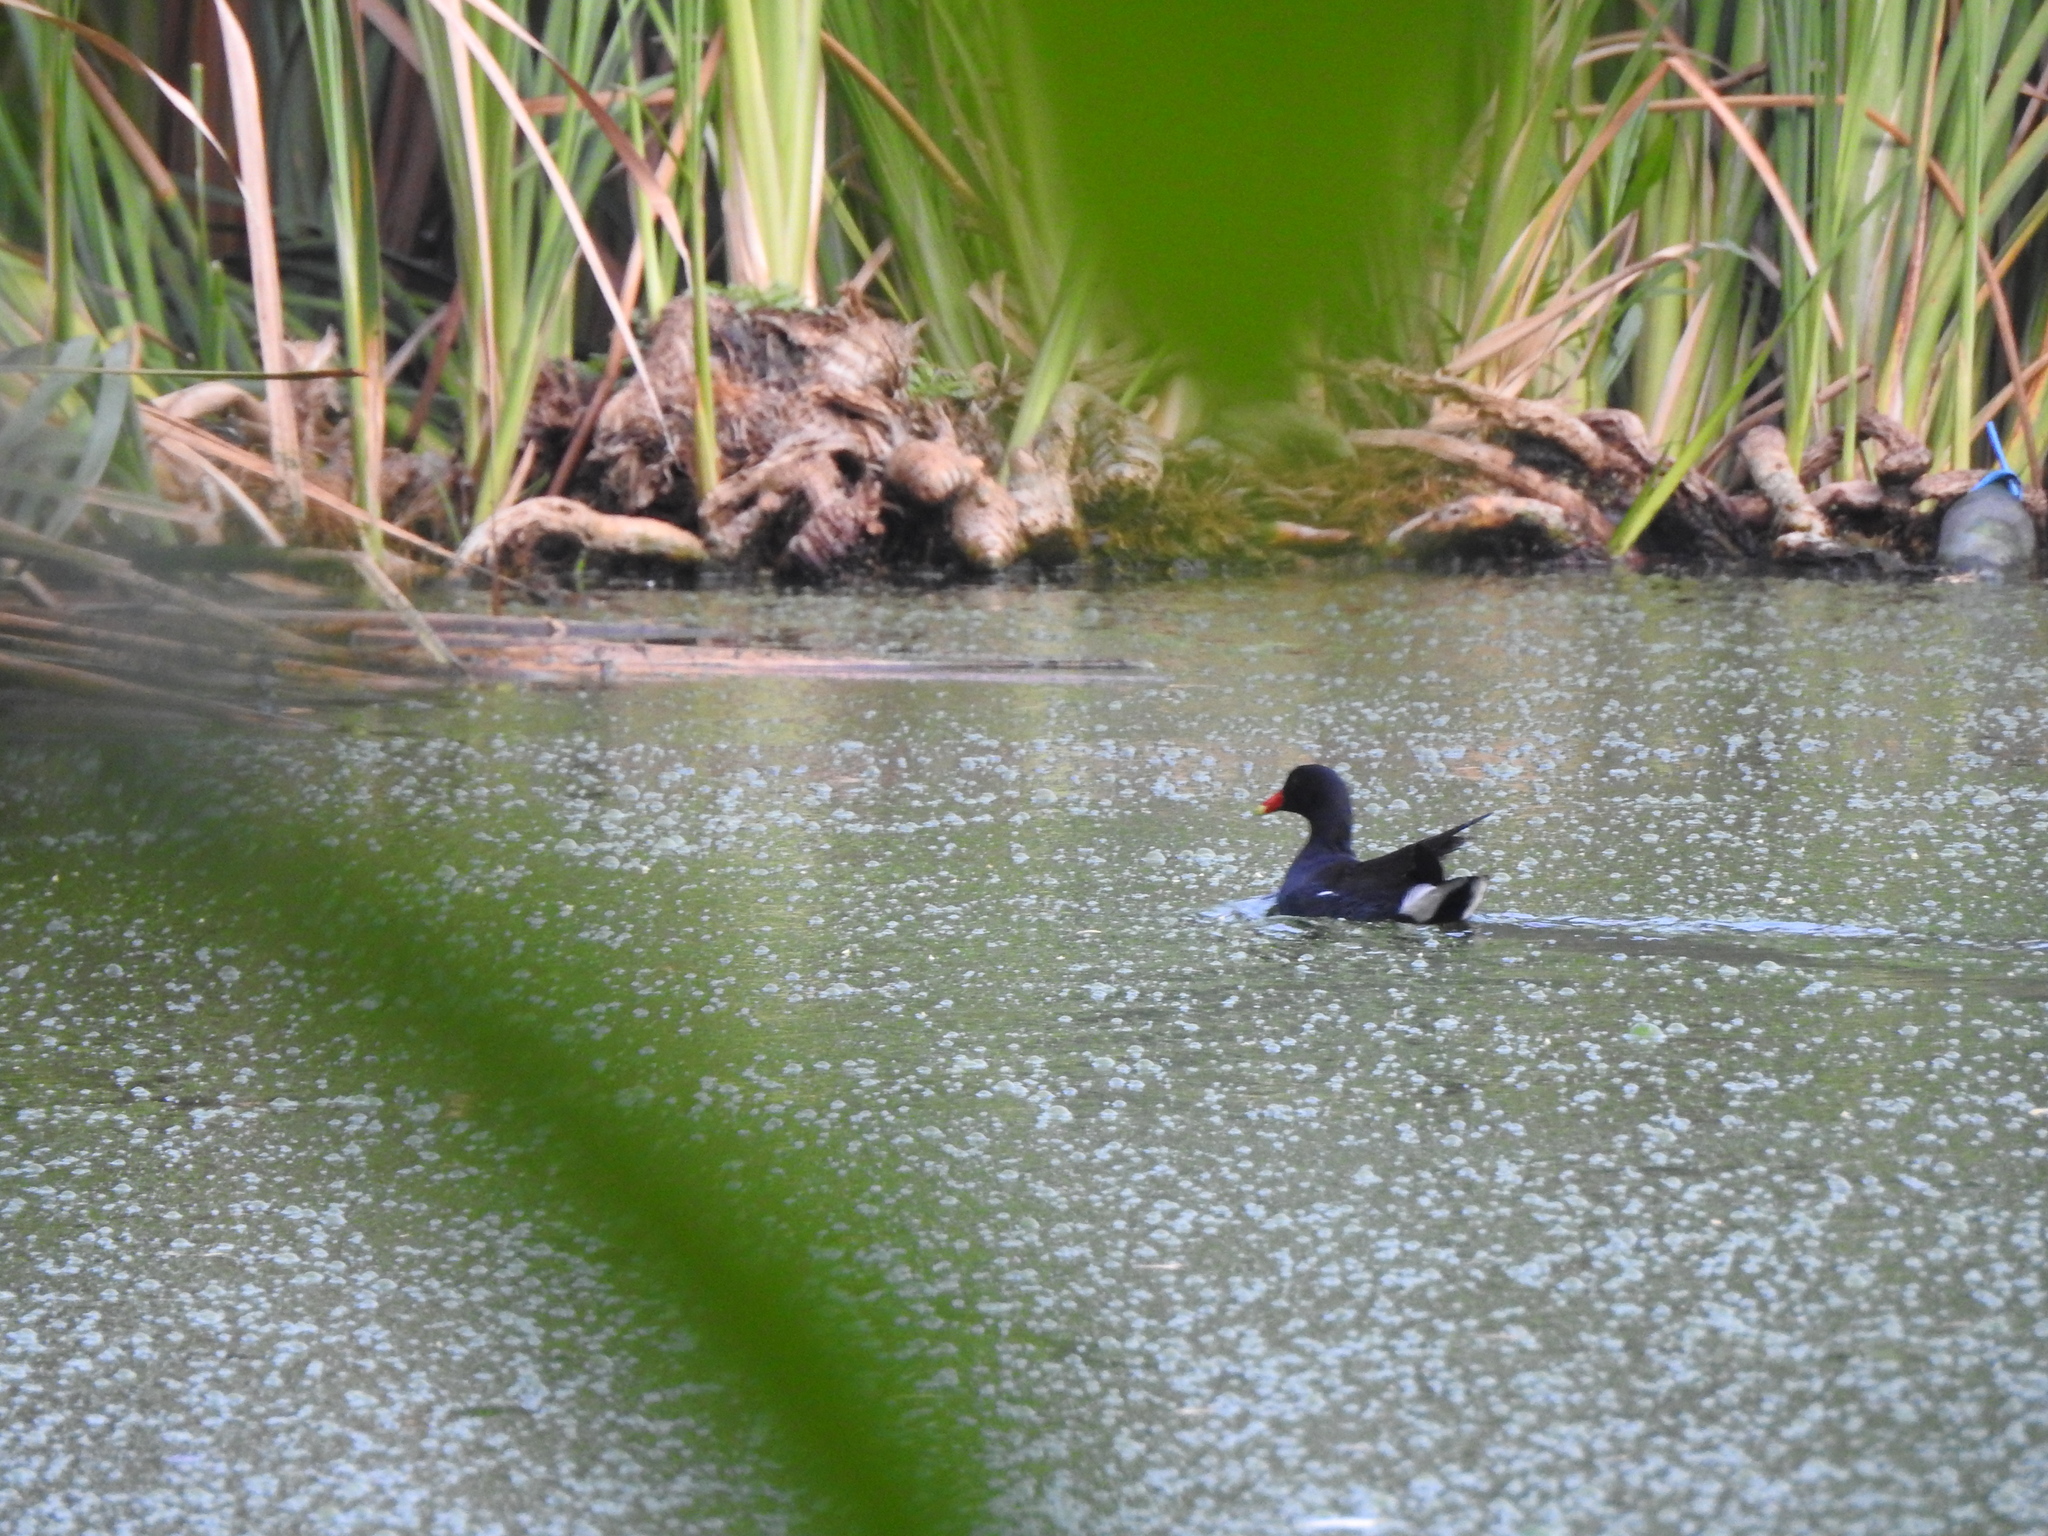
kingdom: Animalia
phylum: Chordata
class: Aves
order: Gruiformes
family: Rallidae
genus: Gallinula
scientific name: Gallinula chloropus
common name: Common moorhen
